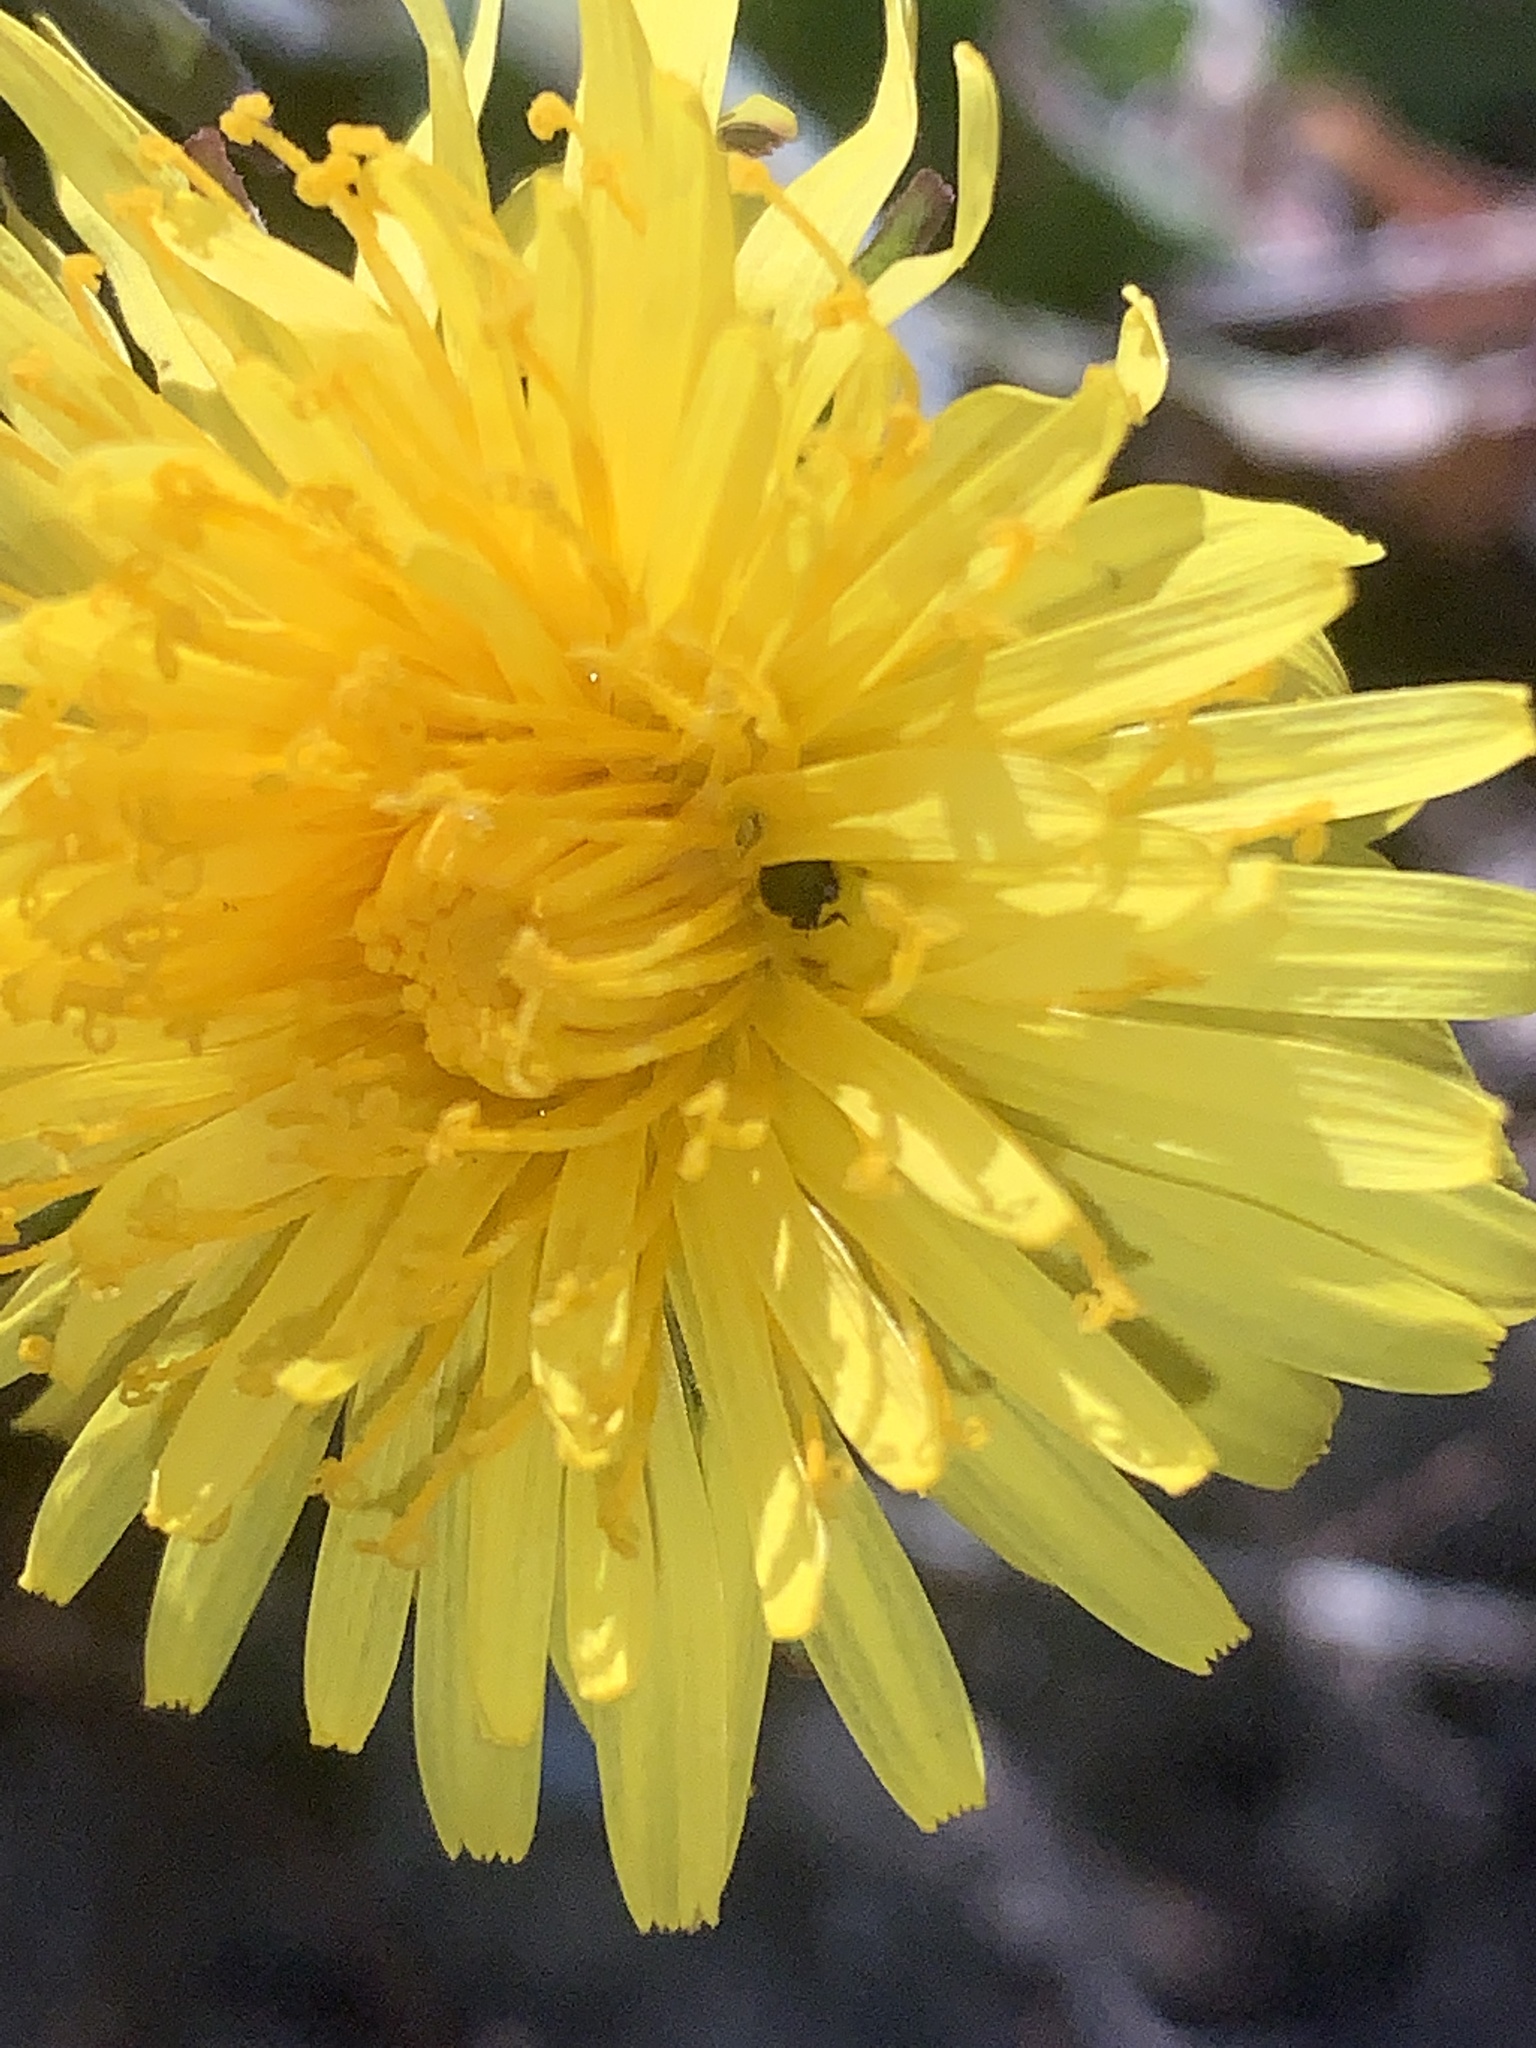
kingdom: Plantae
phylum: Tracheophyta
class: Magnoliopsida
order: Asterales
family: Asteraceae
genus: Taraxacum
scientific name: Taraxacum
